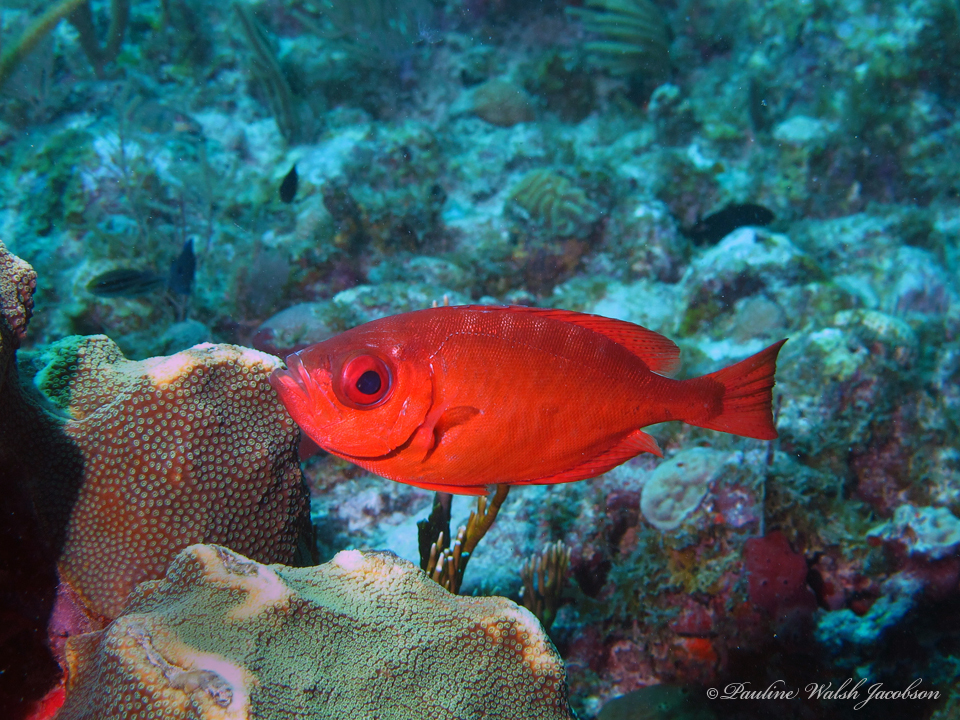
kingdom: Animalia
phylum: Chordata
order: Perciformes
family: Priacanthidae
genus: Heteropriacanthus
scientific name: Heteropriacanthus cruentatus
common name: Glasseye
